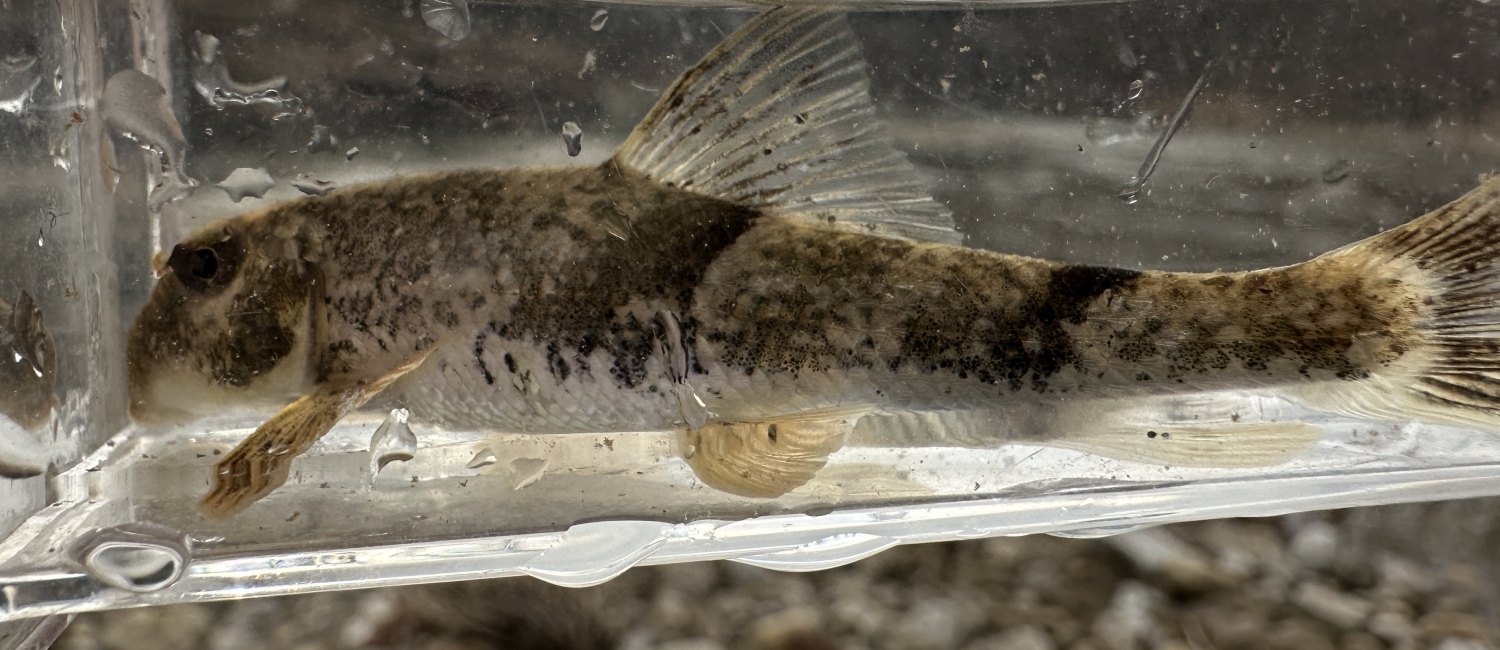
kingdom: Animalia
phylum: Chordata
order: Cypriniformes
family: Catostomidae
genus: Hypentelium
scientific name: Hypentelium nigricans
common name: Northern hog sucker
